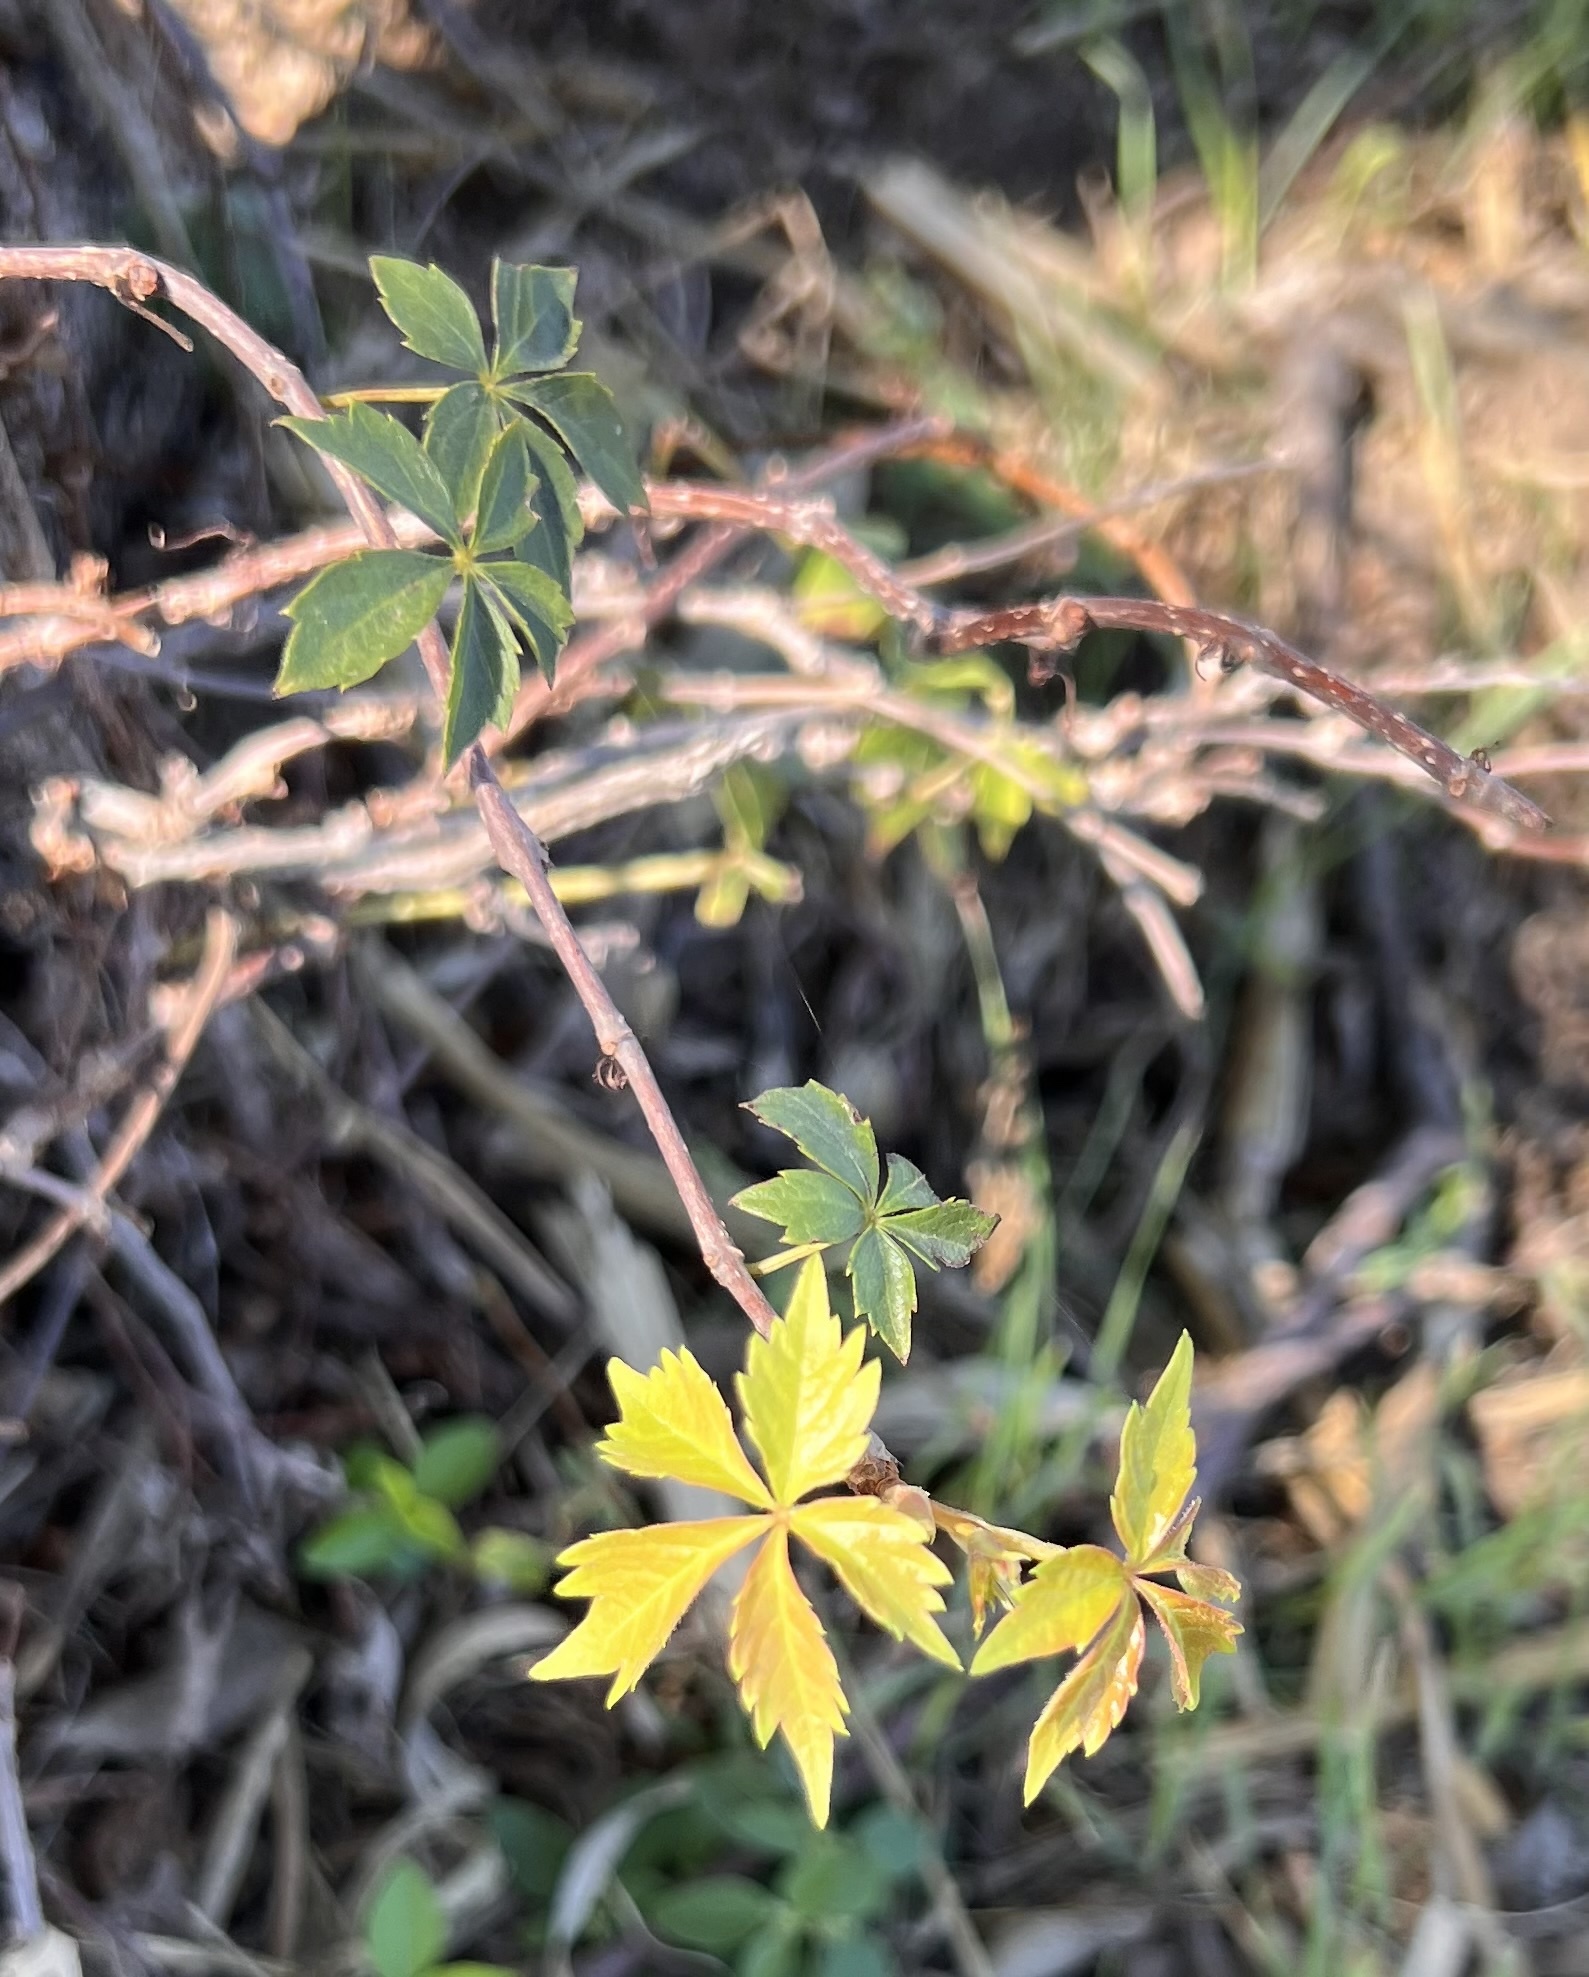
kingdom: Plantae
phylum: Tracheophyta
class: Magnoliopsida
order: Vitales
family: Vitaceae
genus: Parthenocissus
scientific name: Parthenocissus quinquefolia
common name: Virginia-creeper
